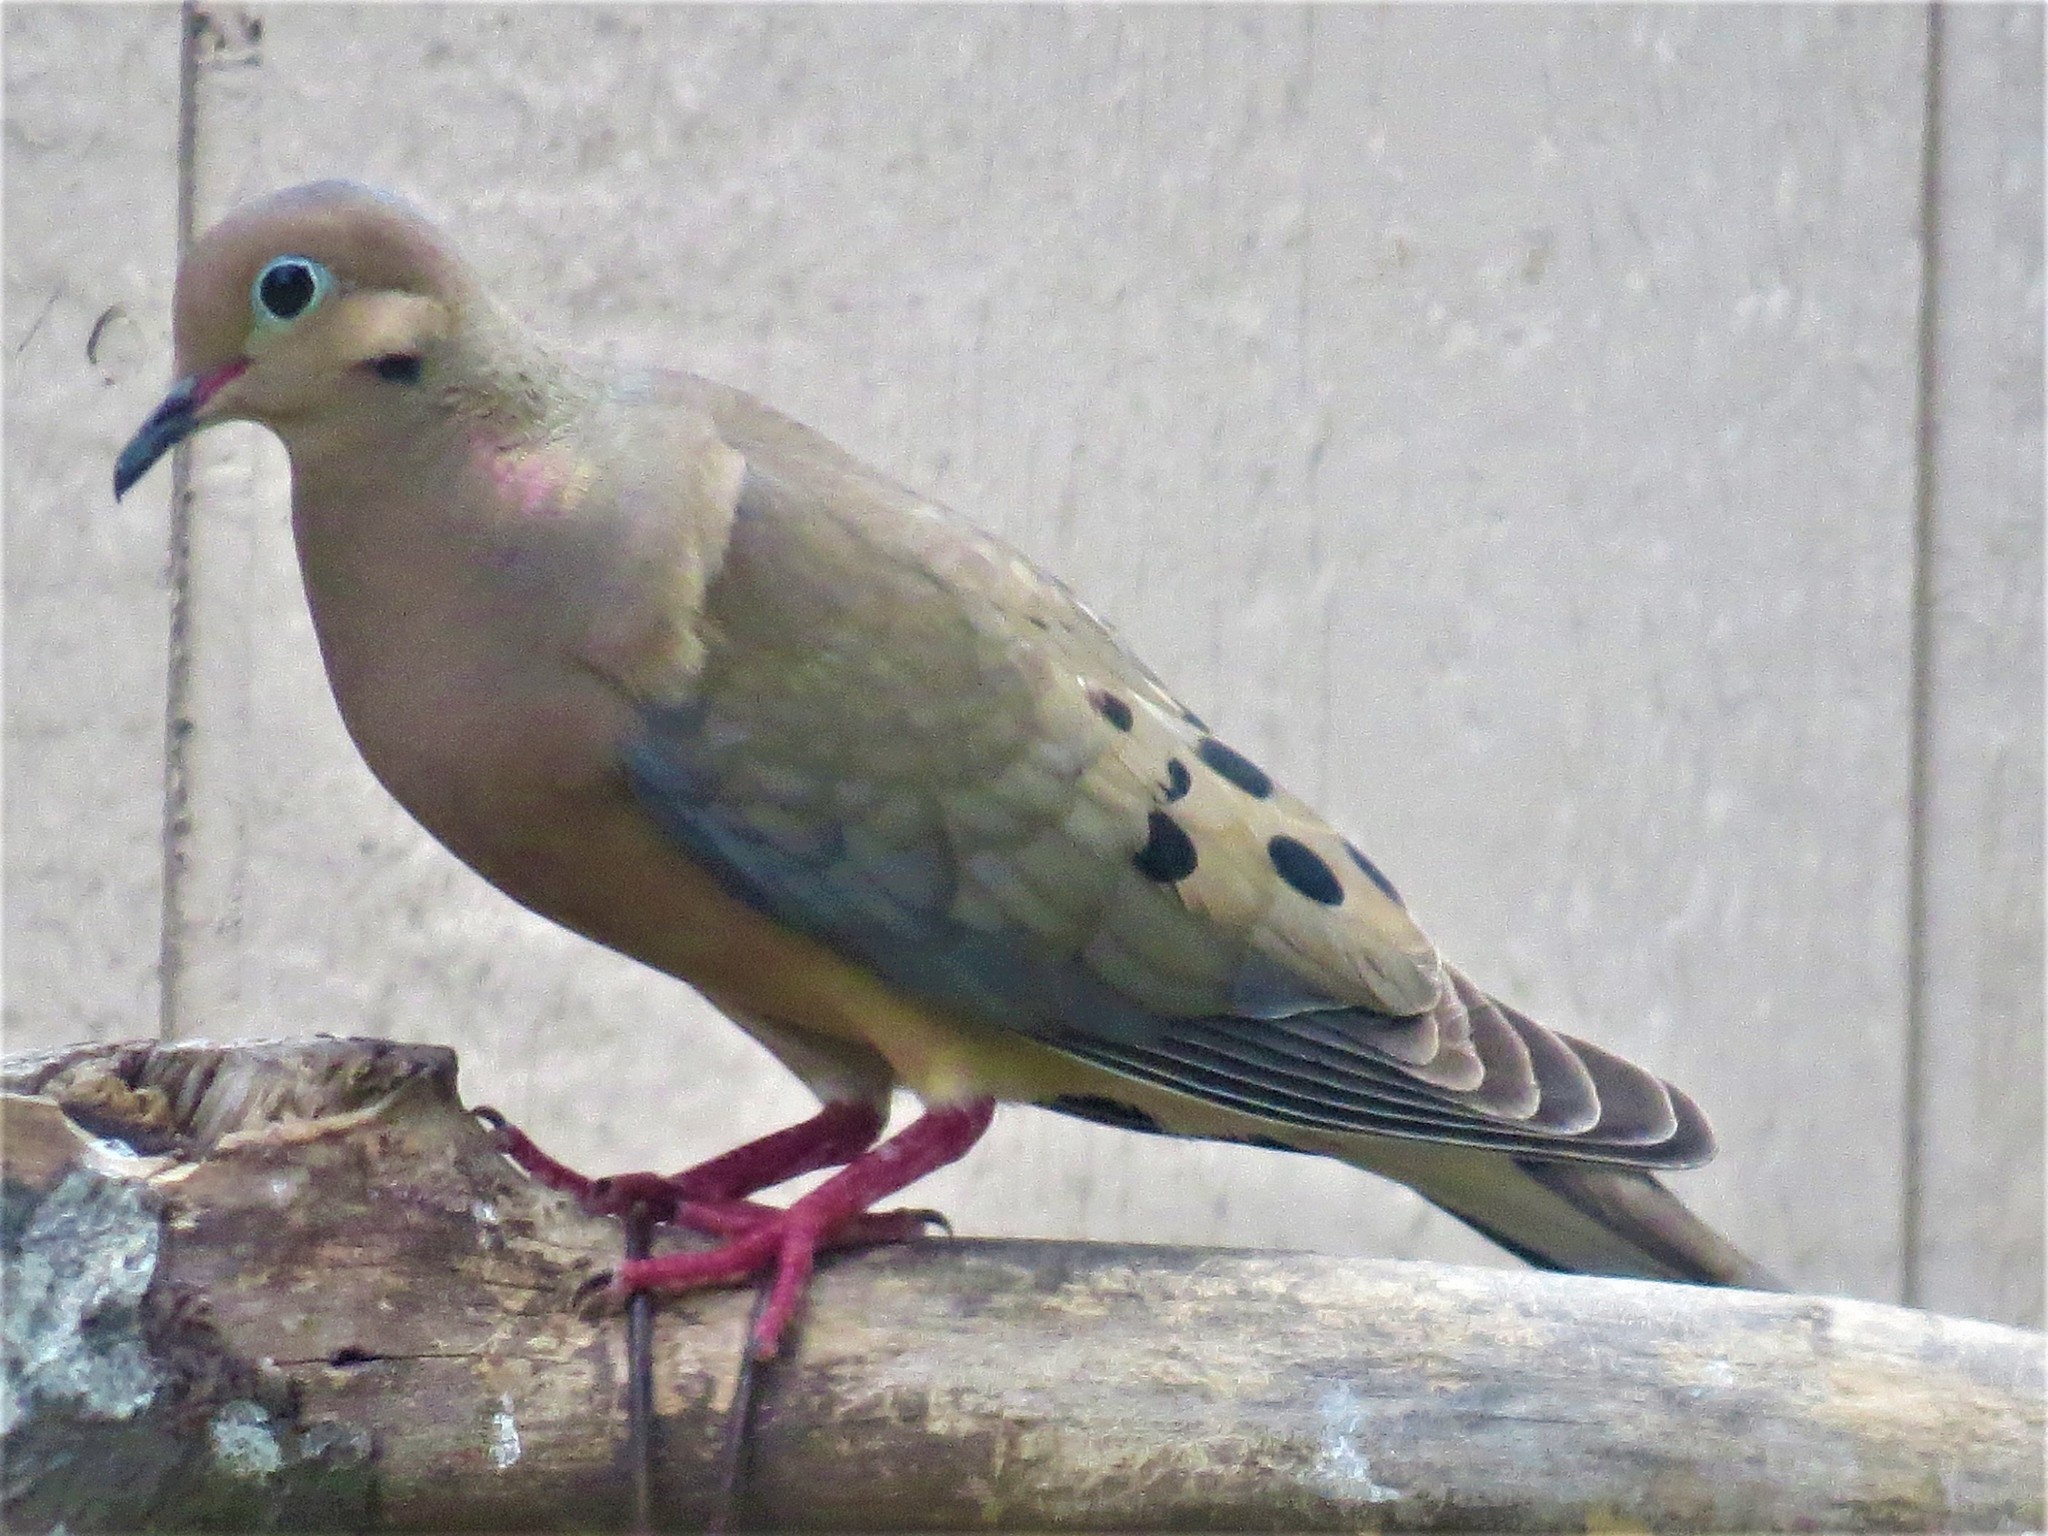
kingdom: Animalia
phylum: Chordata
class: Aves
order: Columbiformes
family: Columbidae
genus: Zenaida
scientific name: Zenaida macroura
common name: Mourning dove
